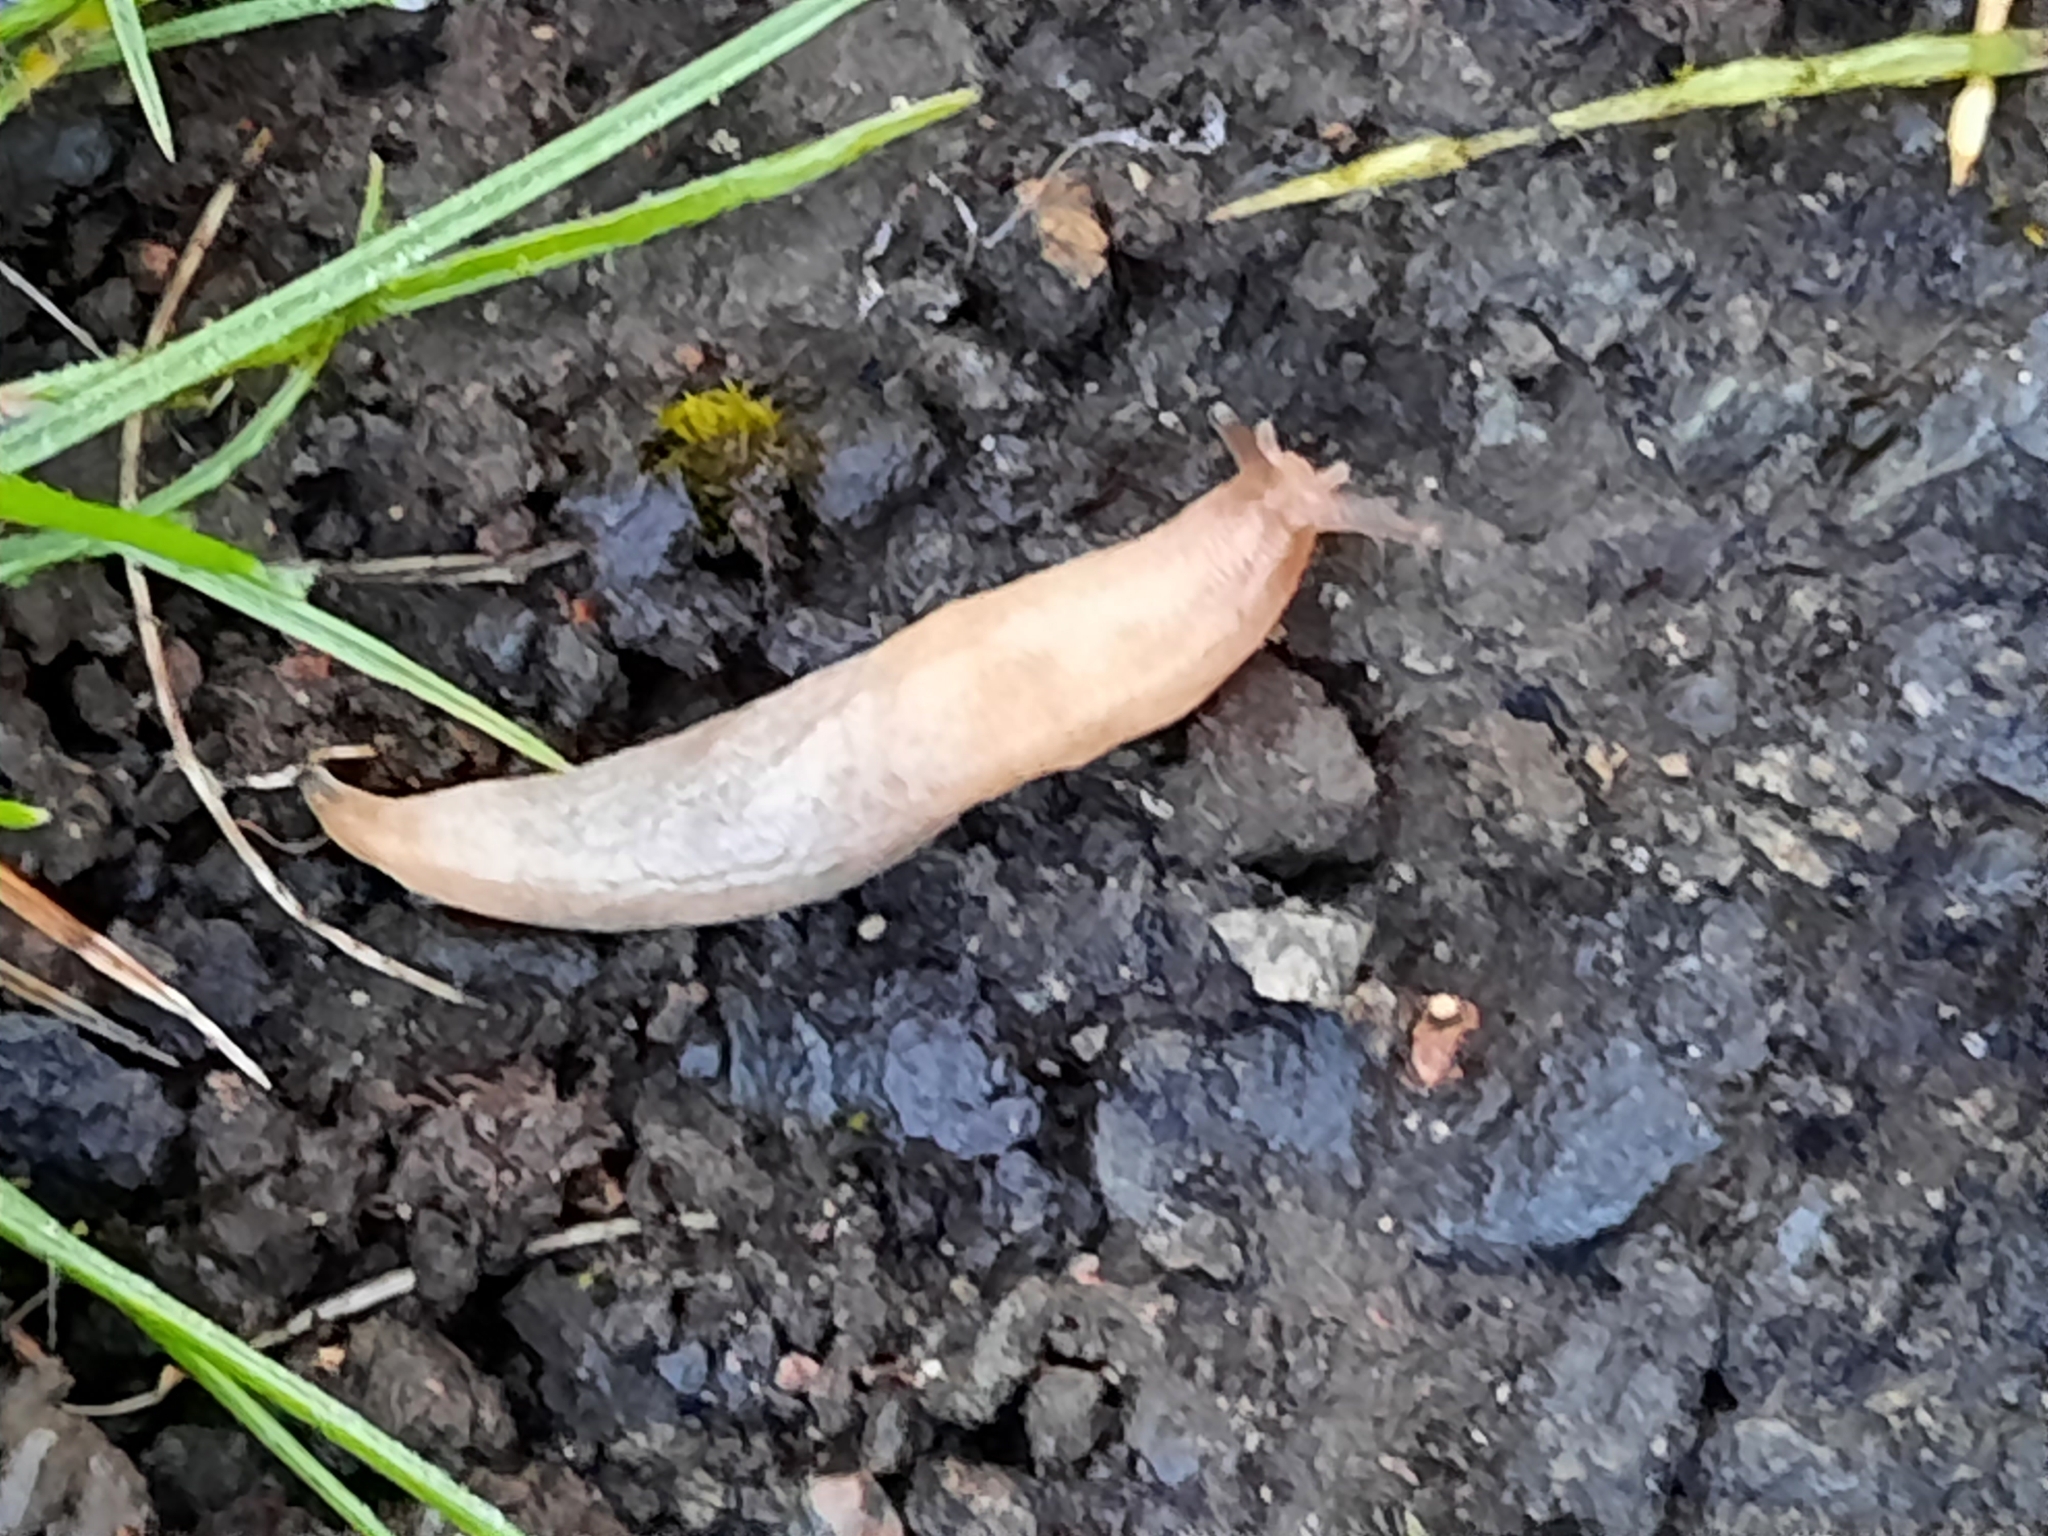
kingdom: Animalia
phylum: Mollusca
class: Gastropoda
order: Stylommatophora
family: Agriolimacidae
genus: Deroceras
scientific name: Deroceras reticulatum
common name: Gray field slug
